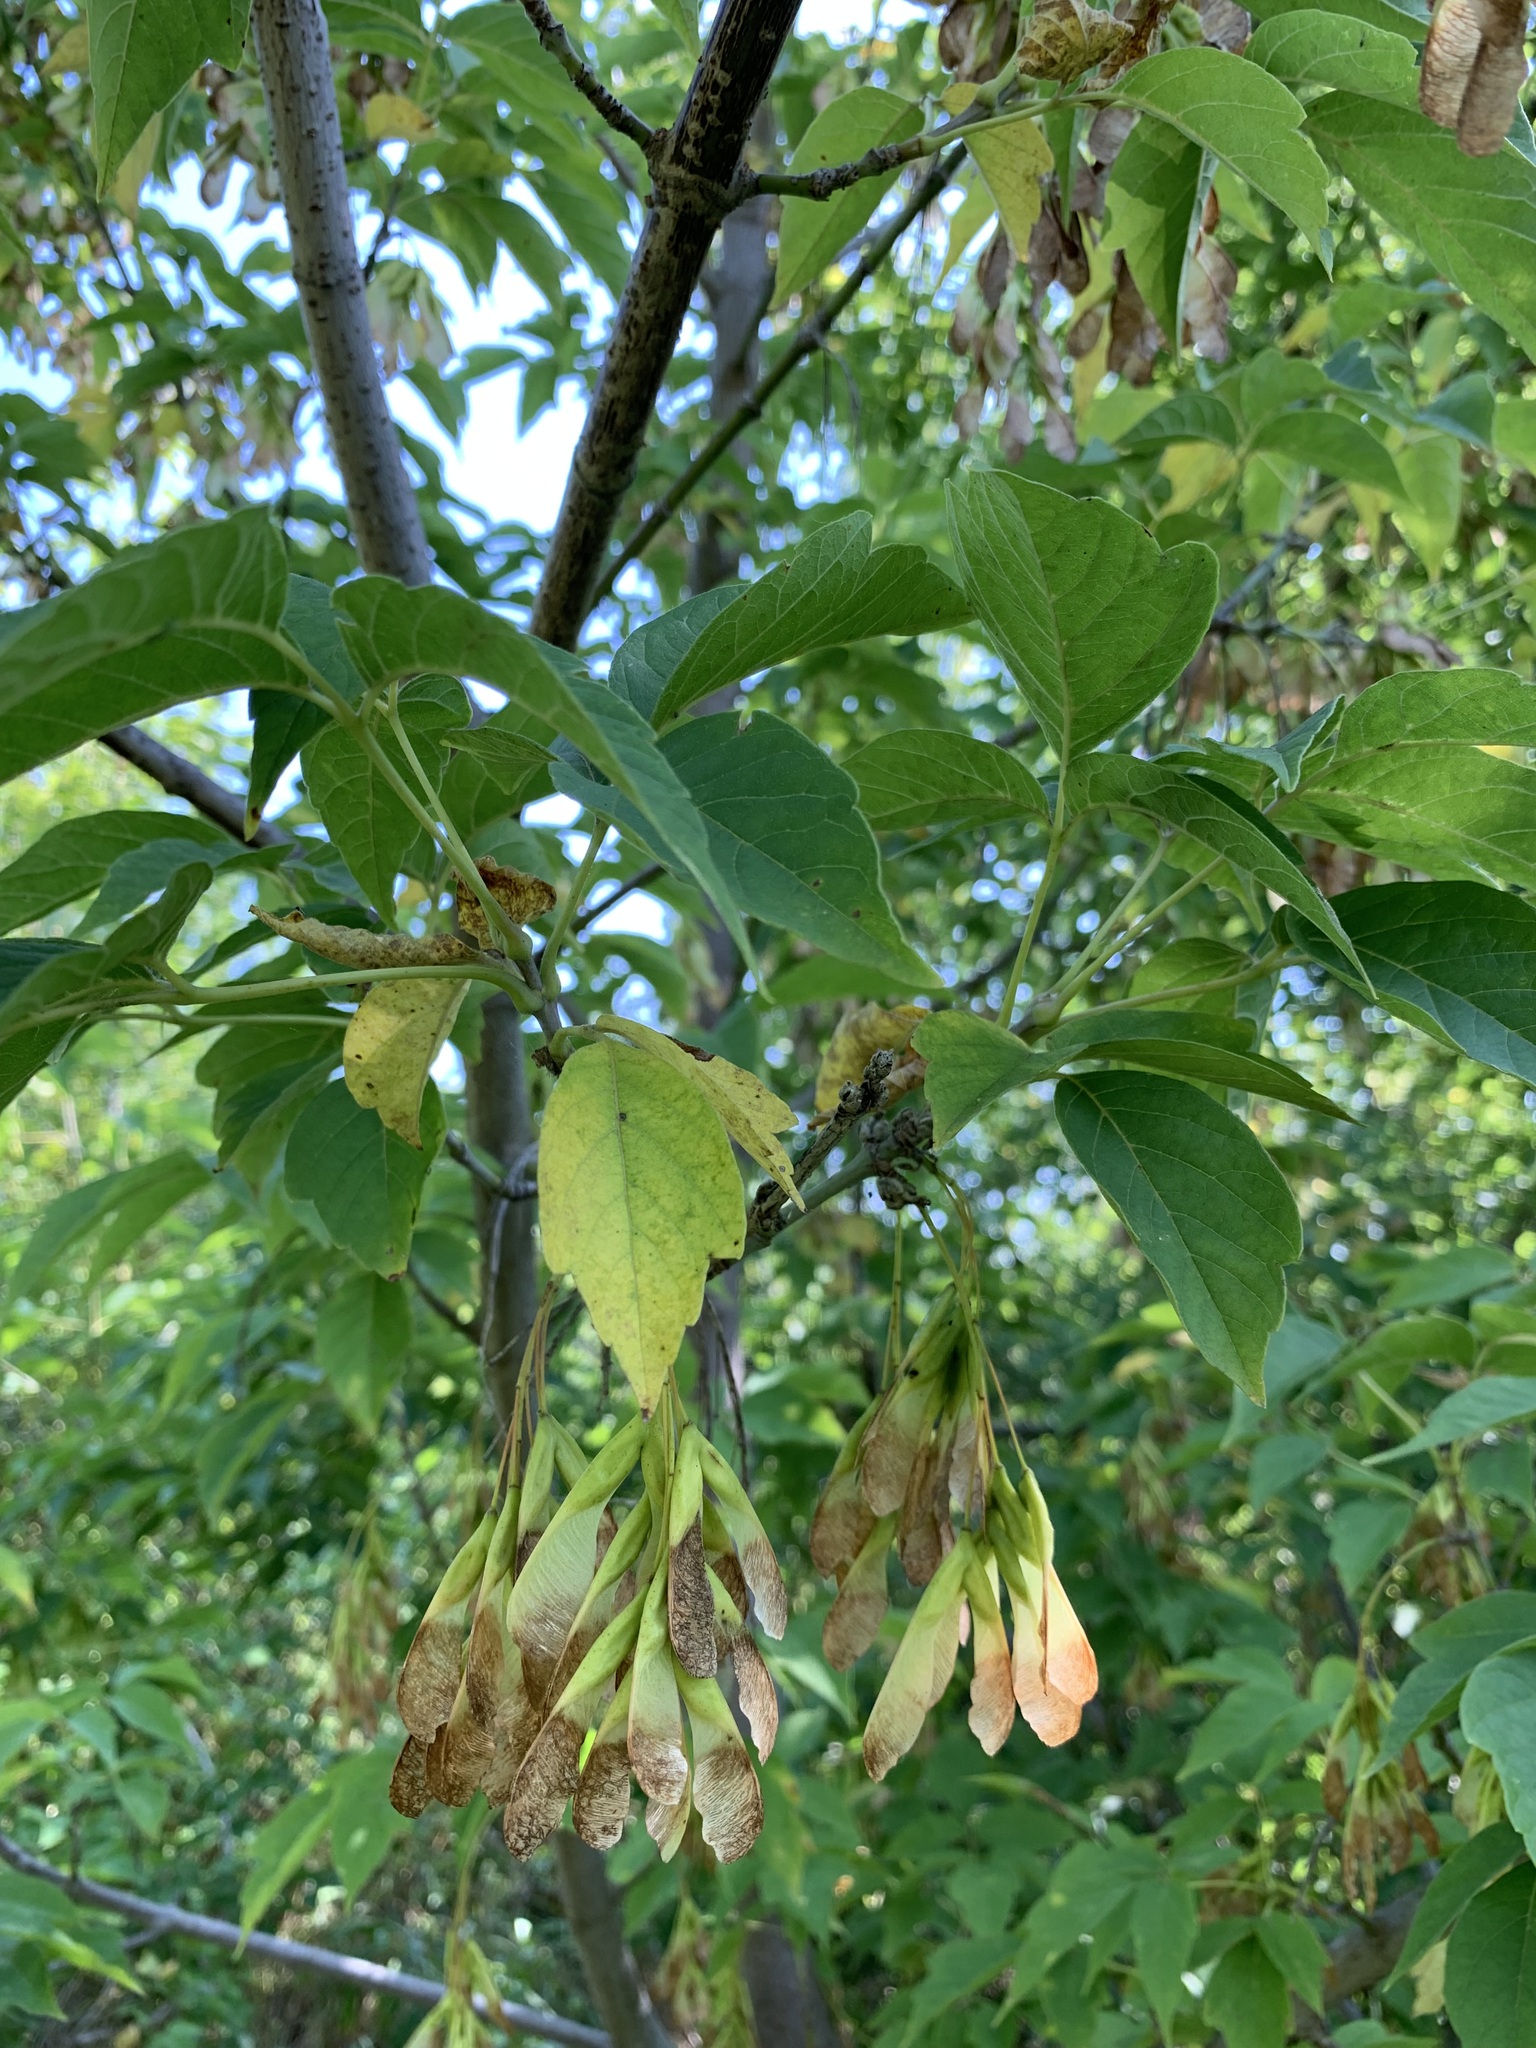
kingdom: Plantae
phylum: Tracheophyta
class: Magnoliopsida
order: Sapindales
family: Sapindaceae
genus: Acer
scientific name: Acer negundo
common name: Ashleaf maple
